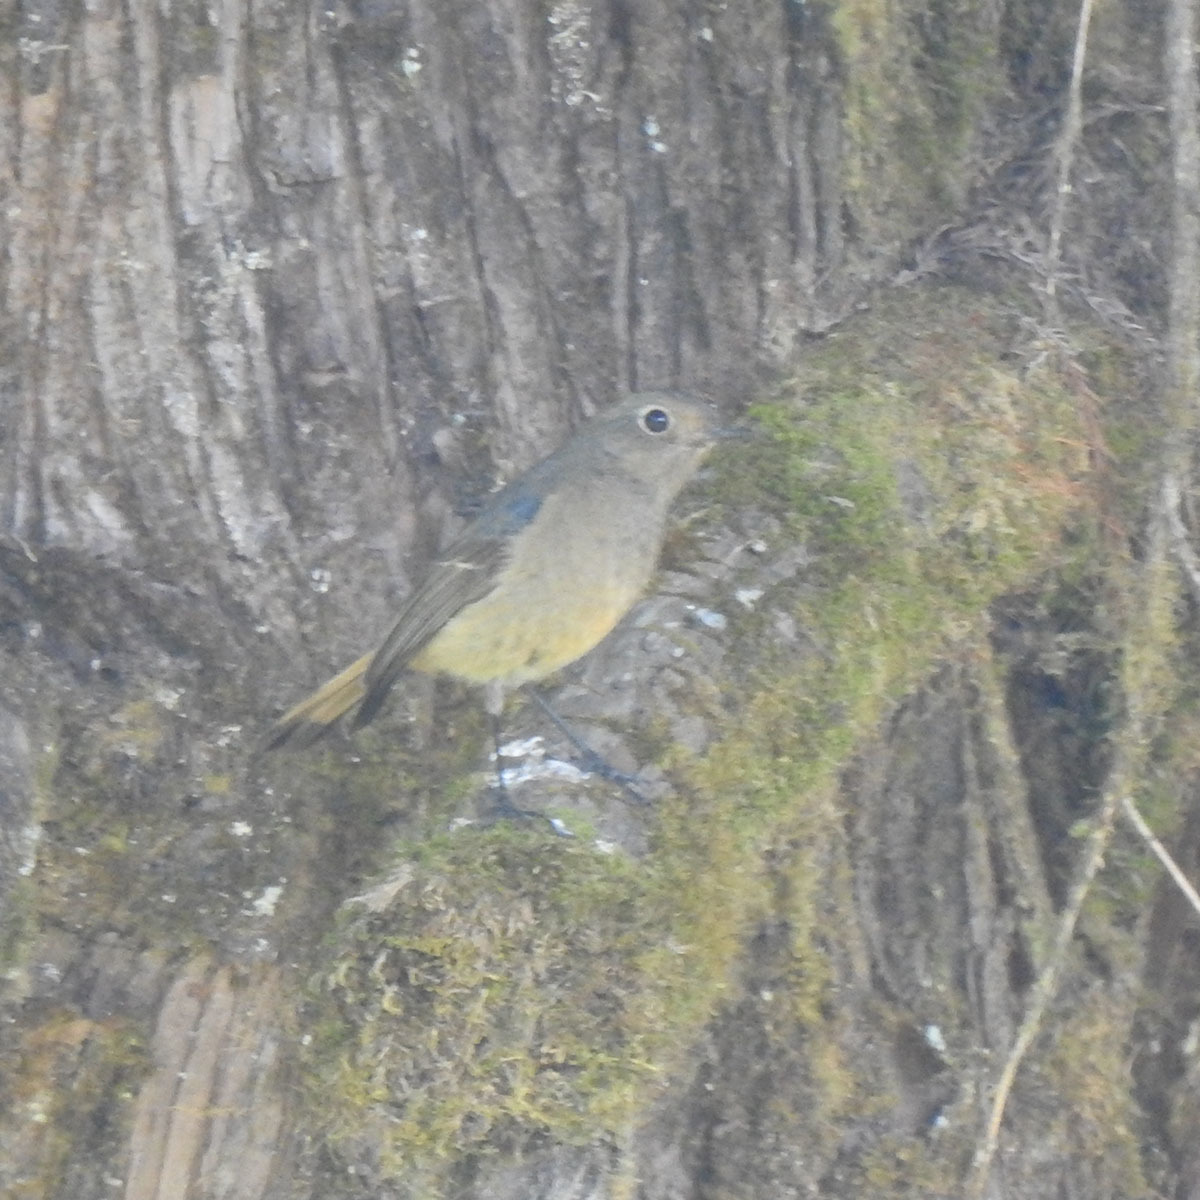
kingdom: Animalia
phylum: Chordata
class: Aves
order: Passeriformes
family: Muscicapidae
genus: Phoenicurus
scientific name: Phoenicurus frontalis
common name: Blue-fronted redstart
